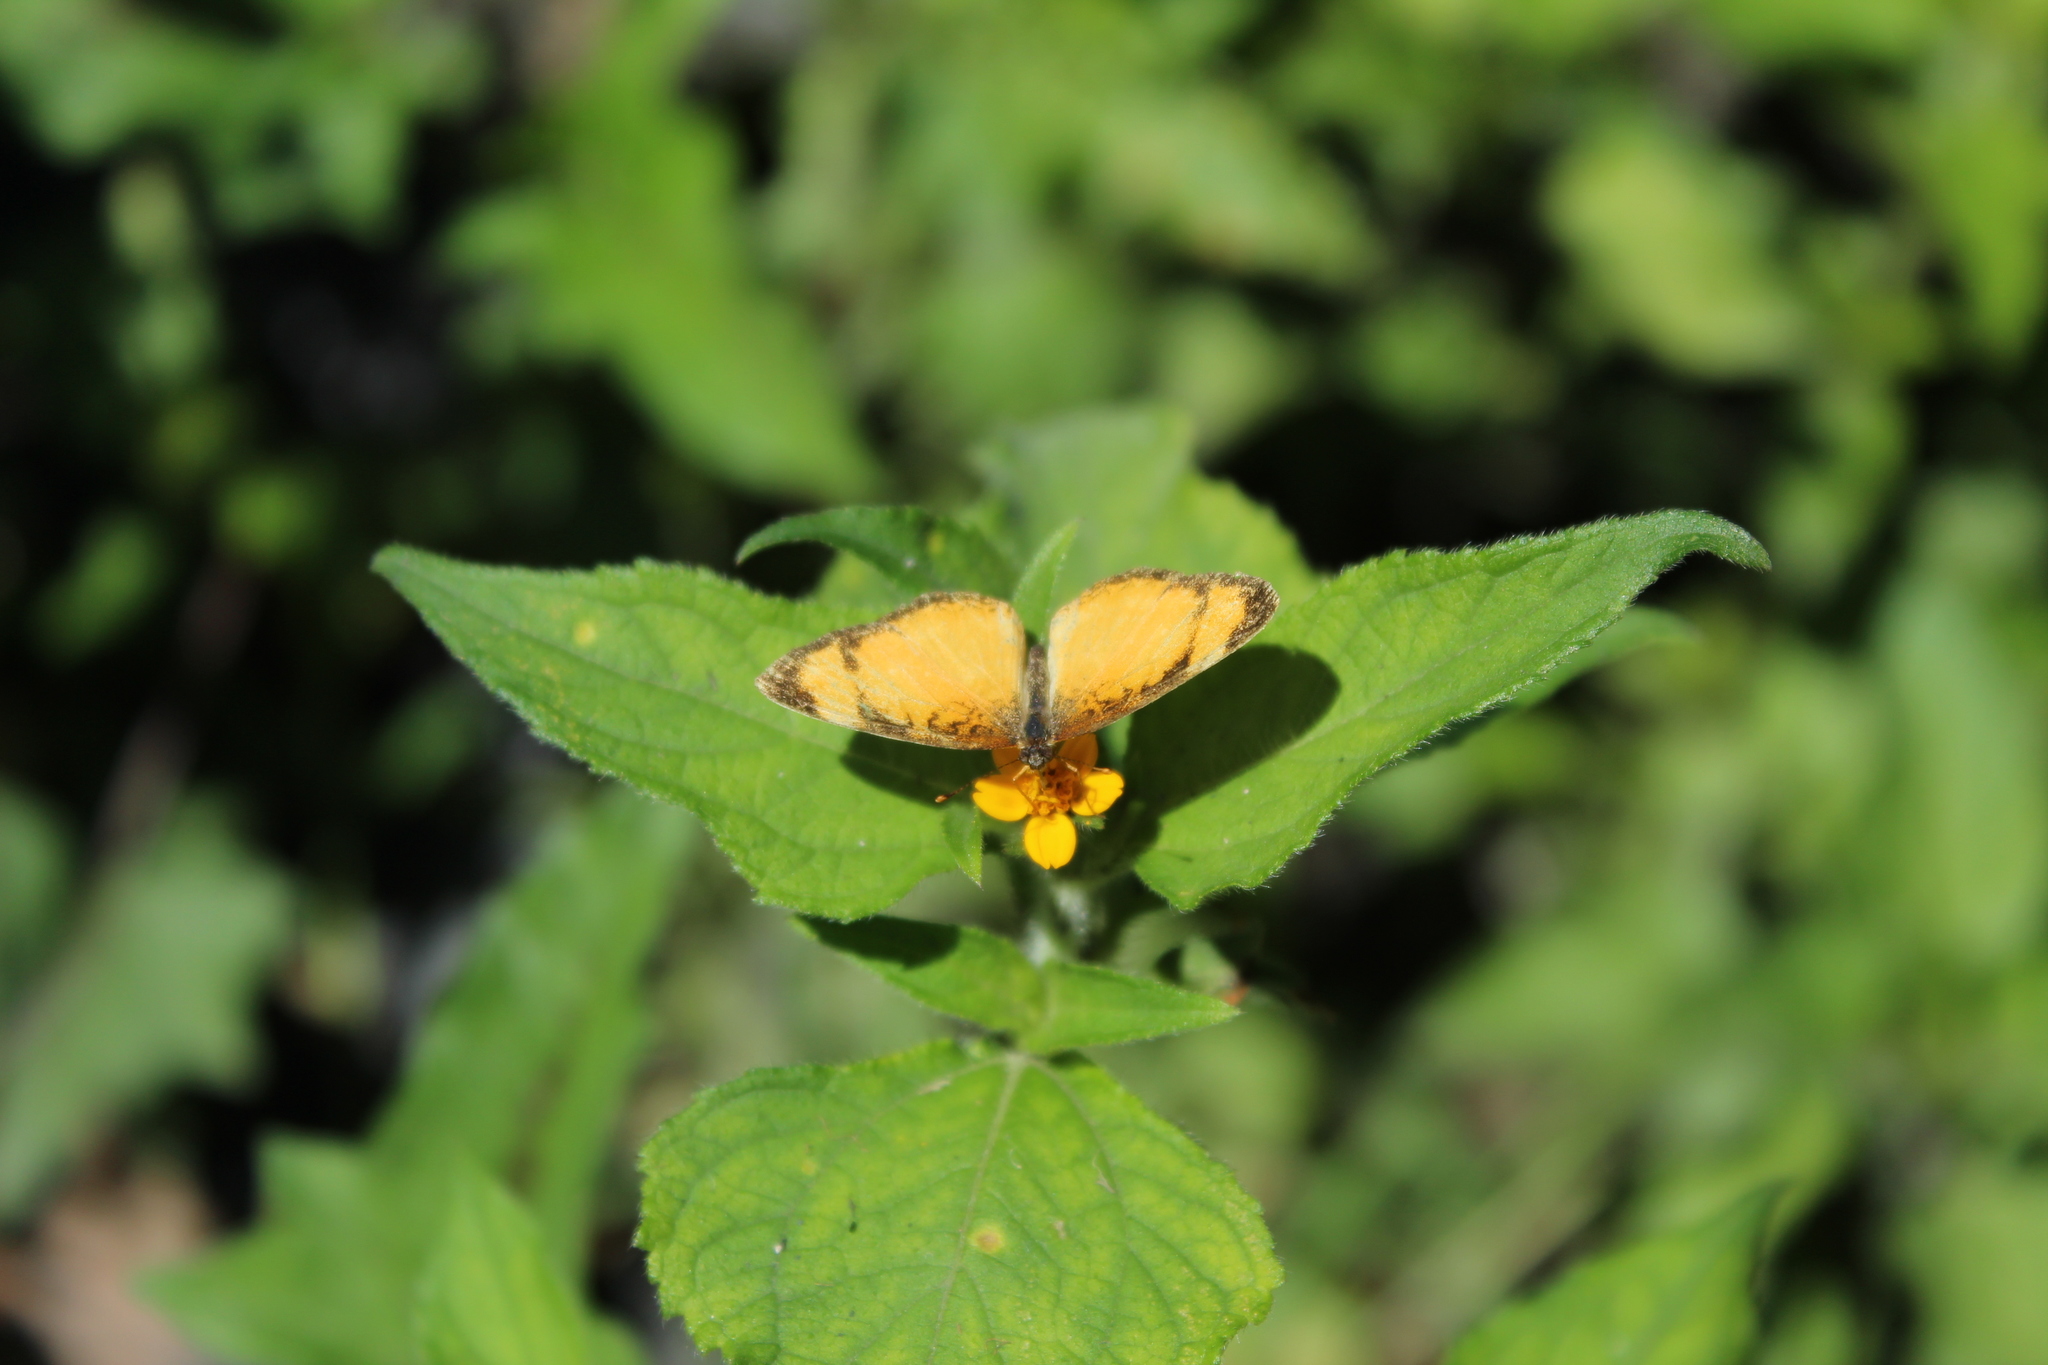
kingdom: Animalia
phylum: Arthropoda
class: Insecta
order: Lepidoptera
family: Nymphalidae
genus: Tegosa
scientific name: Tegosa anieta
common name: Black-bordered crescent
